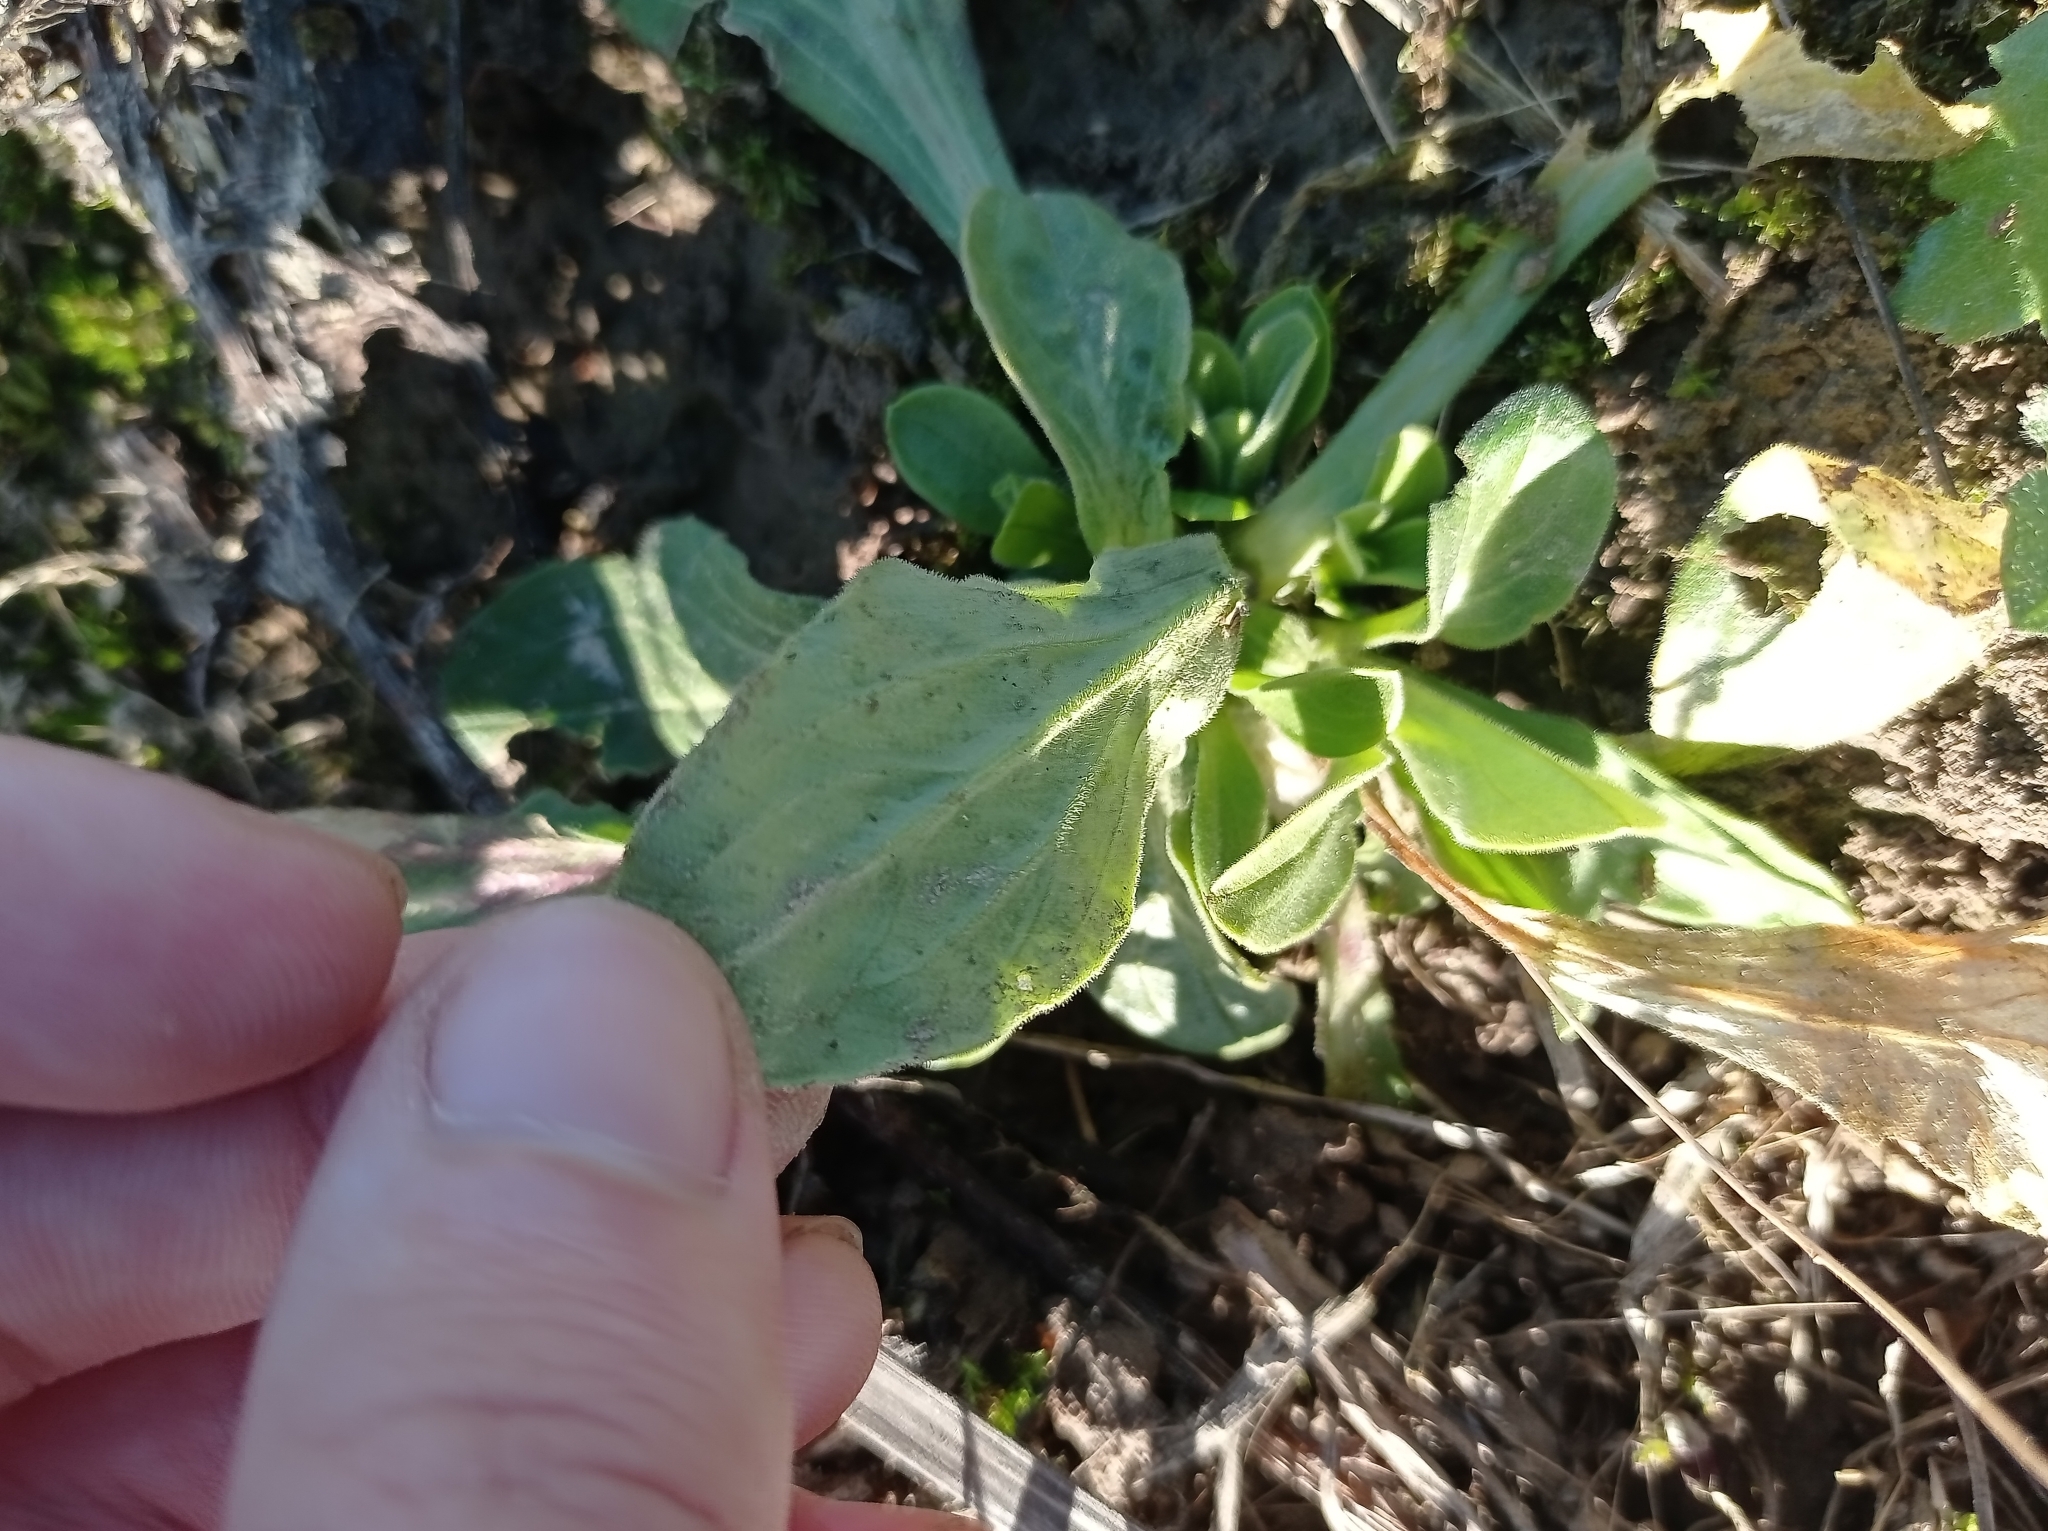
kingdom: Plantae
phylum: Tracheophyta
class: Magnoliopsida
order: Caryophyllales
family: Caryophyllaceae
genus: Silene
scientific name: Silene latifolia
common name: White campion
